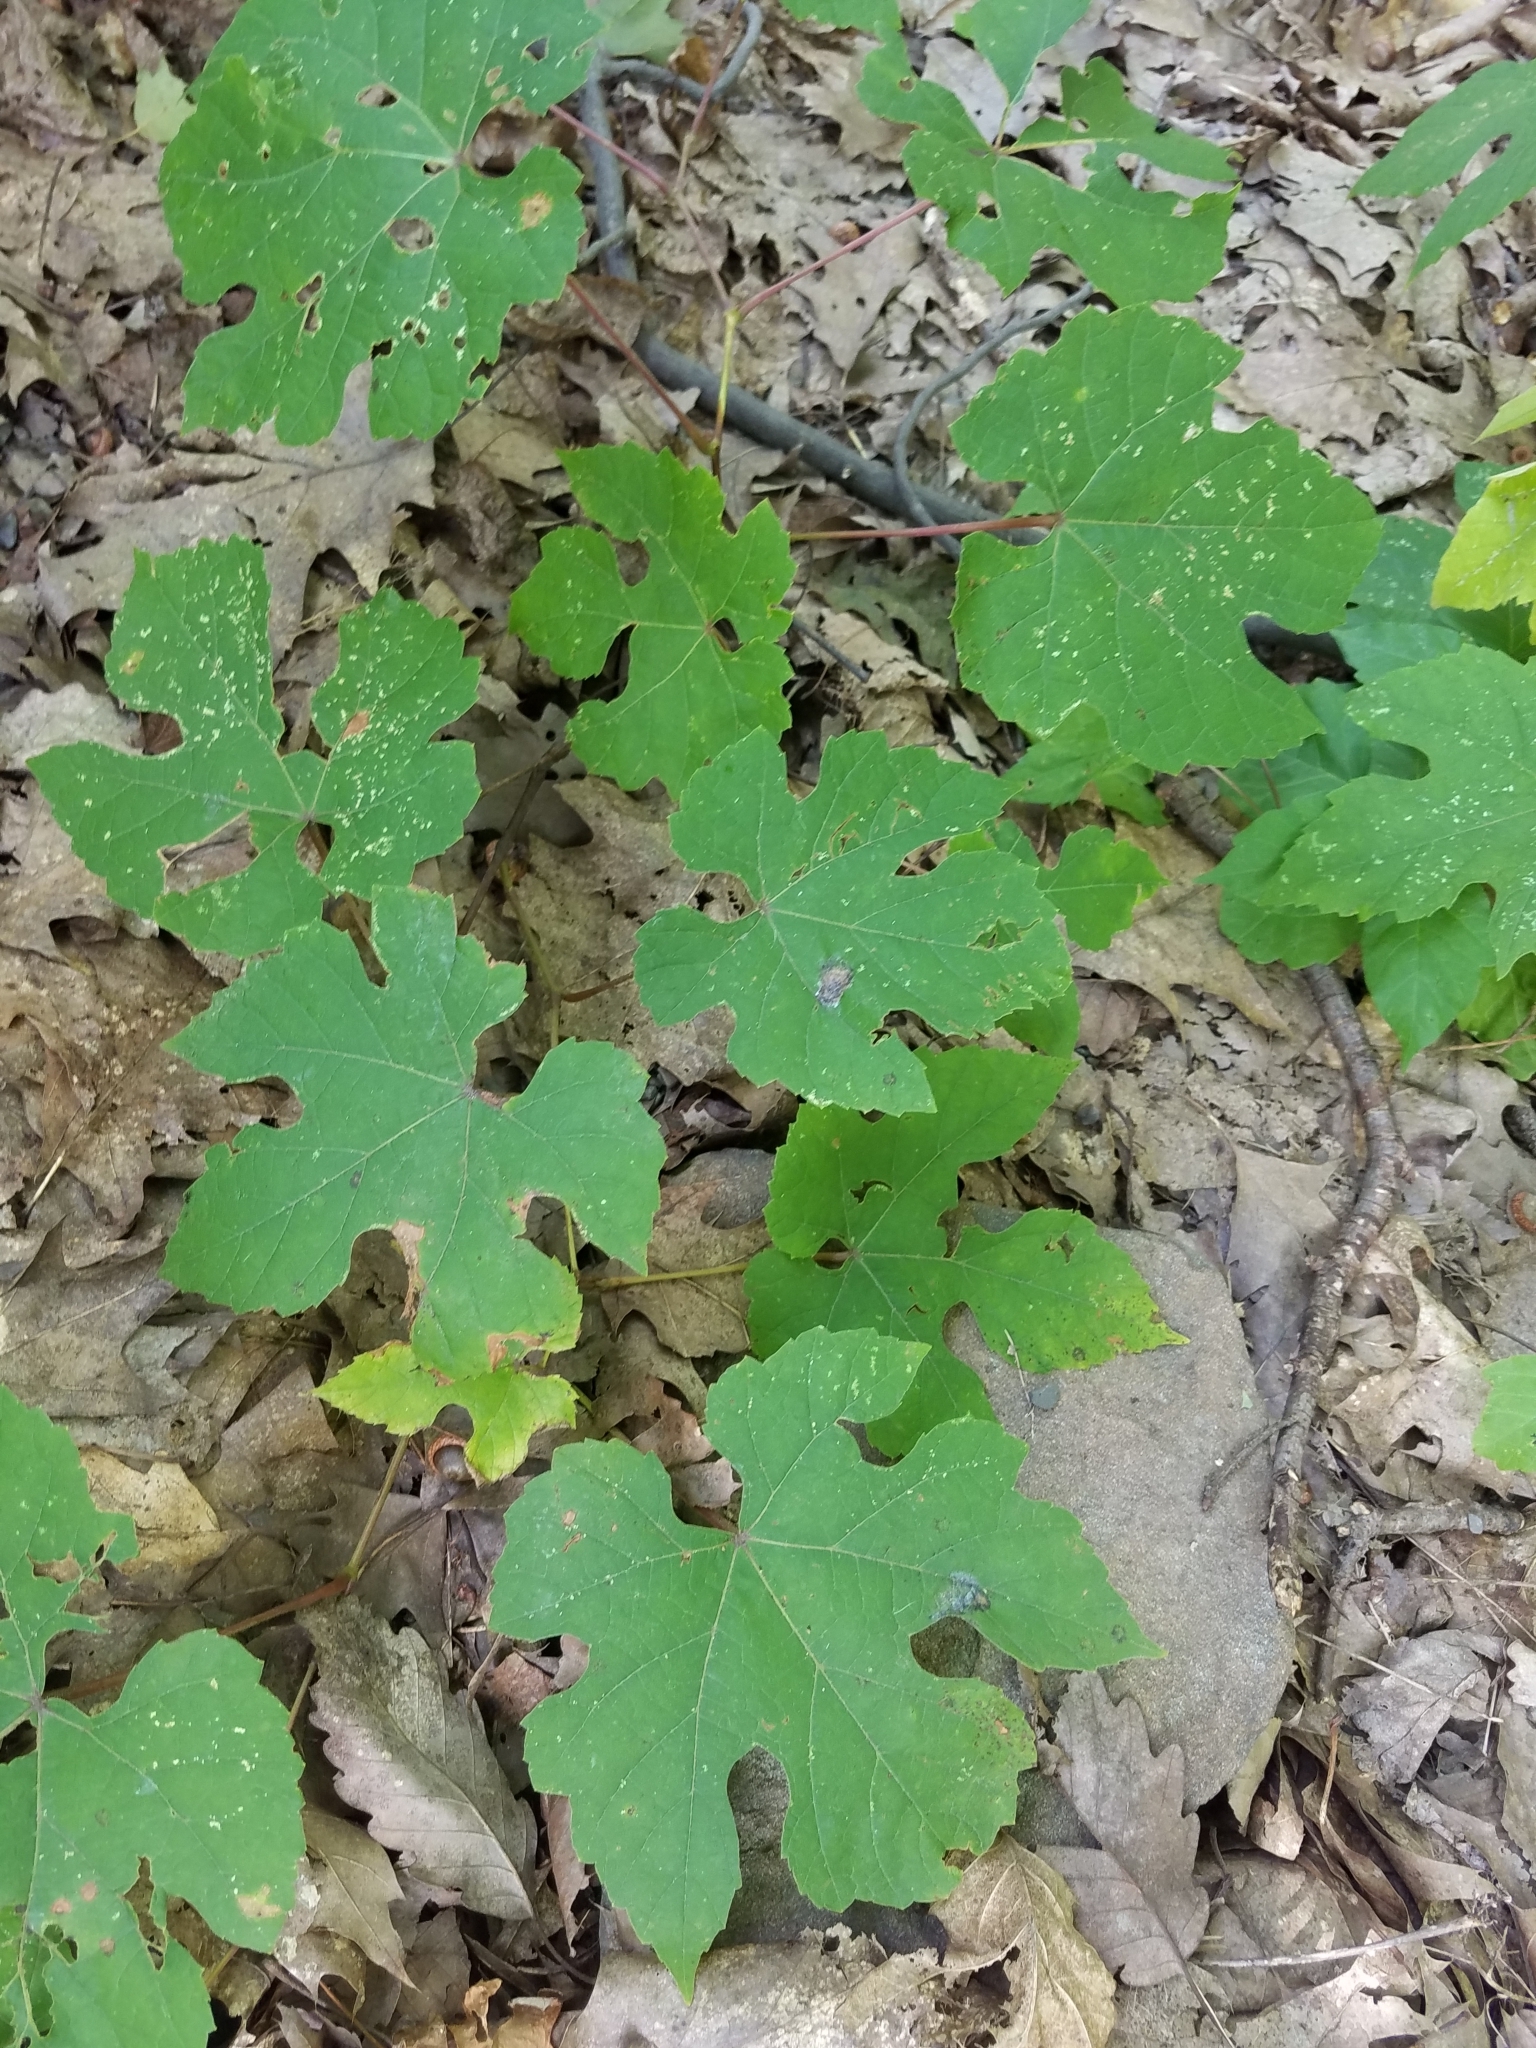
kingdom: Plantae
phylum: Tracheophyta
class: Magnoliopsida
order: Vitales
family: Vitaceae
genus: Vitis
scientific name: Vitis aestivalis
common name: Pigeon grape
